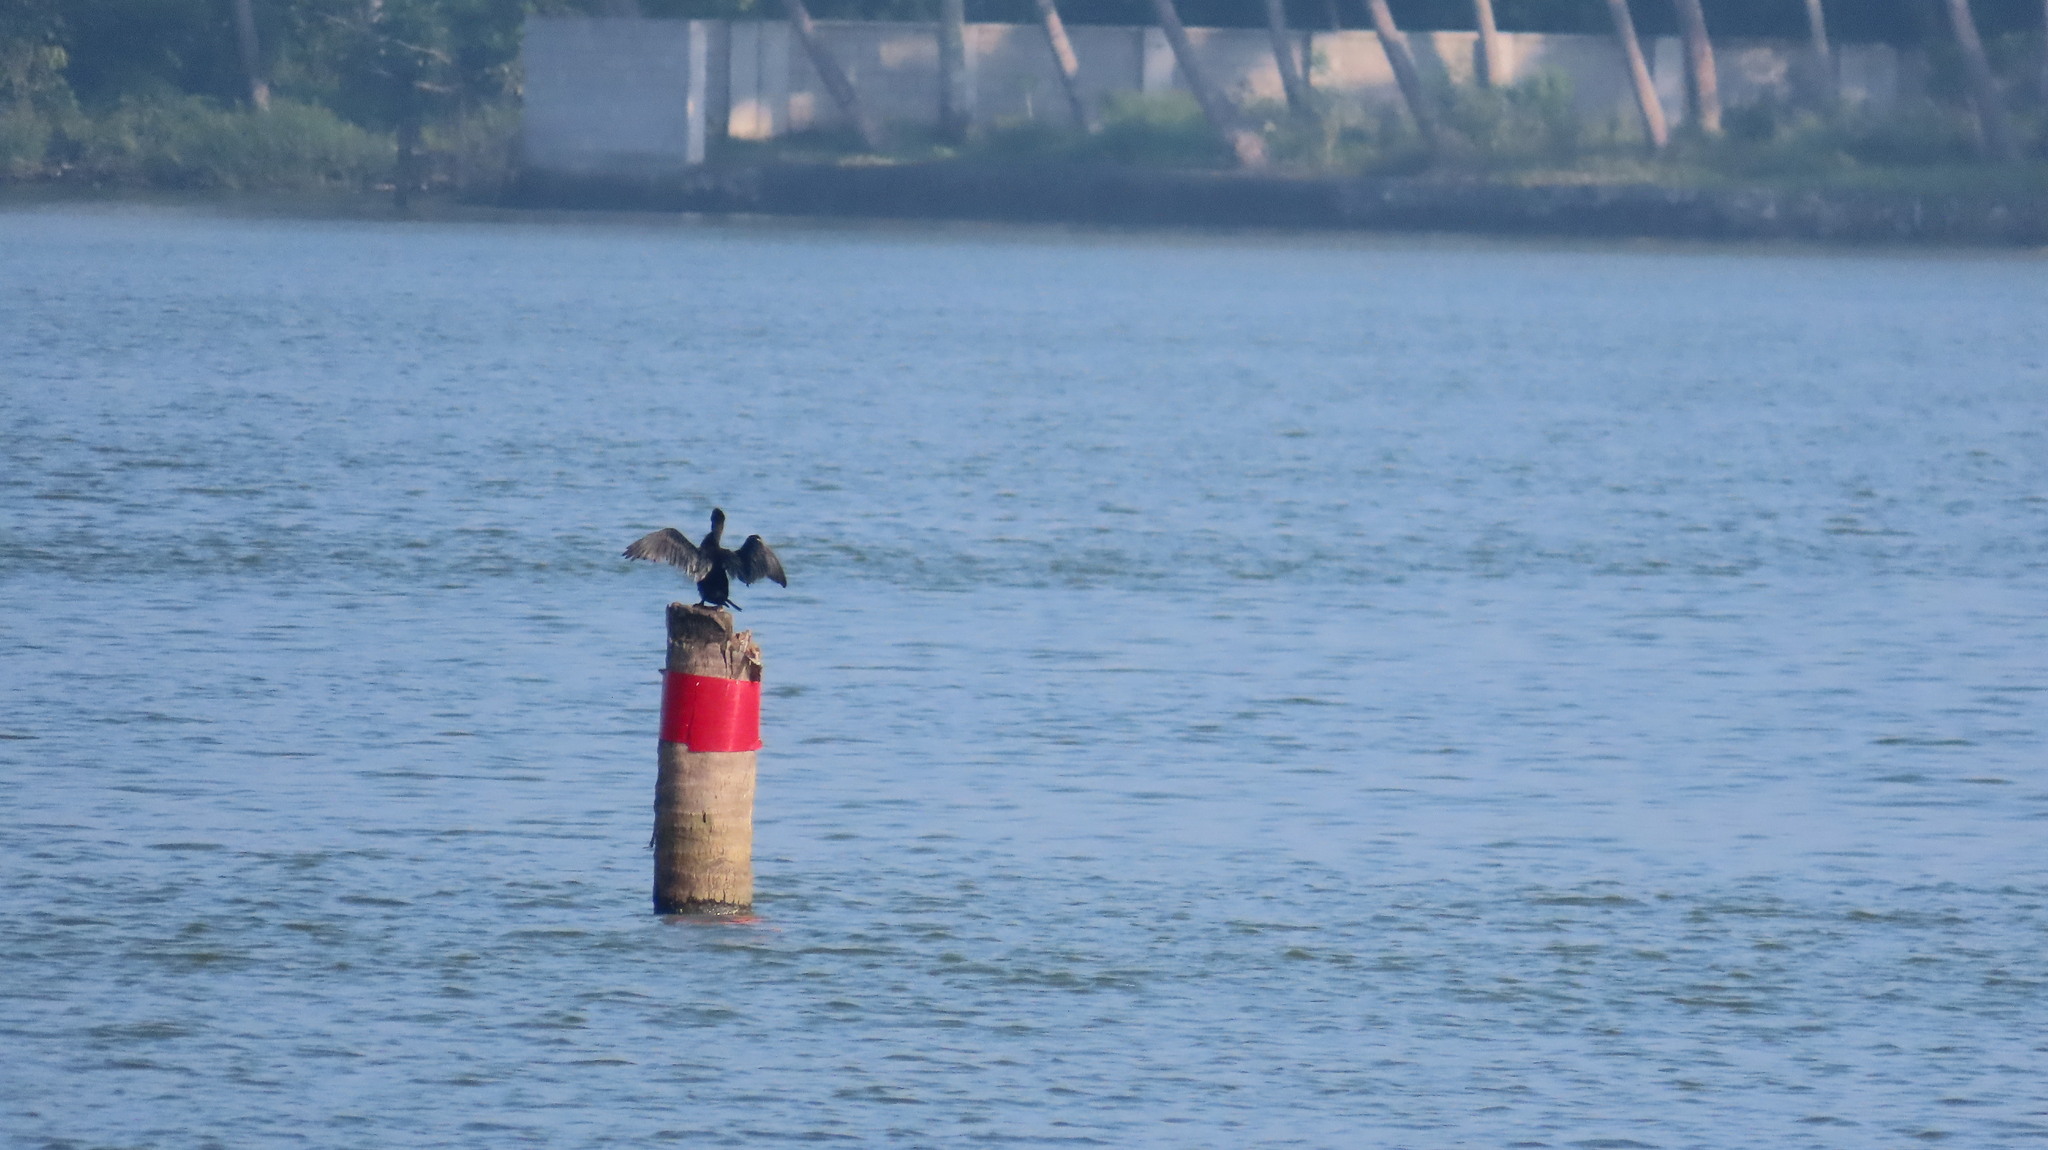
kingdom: Animalia
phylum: Chordata
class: Aves
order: Suliformes
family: Phalacrocoracidae
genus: Microcarbo
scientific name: Microcarbo niger
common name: Little cormorant
